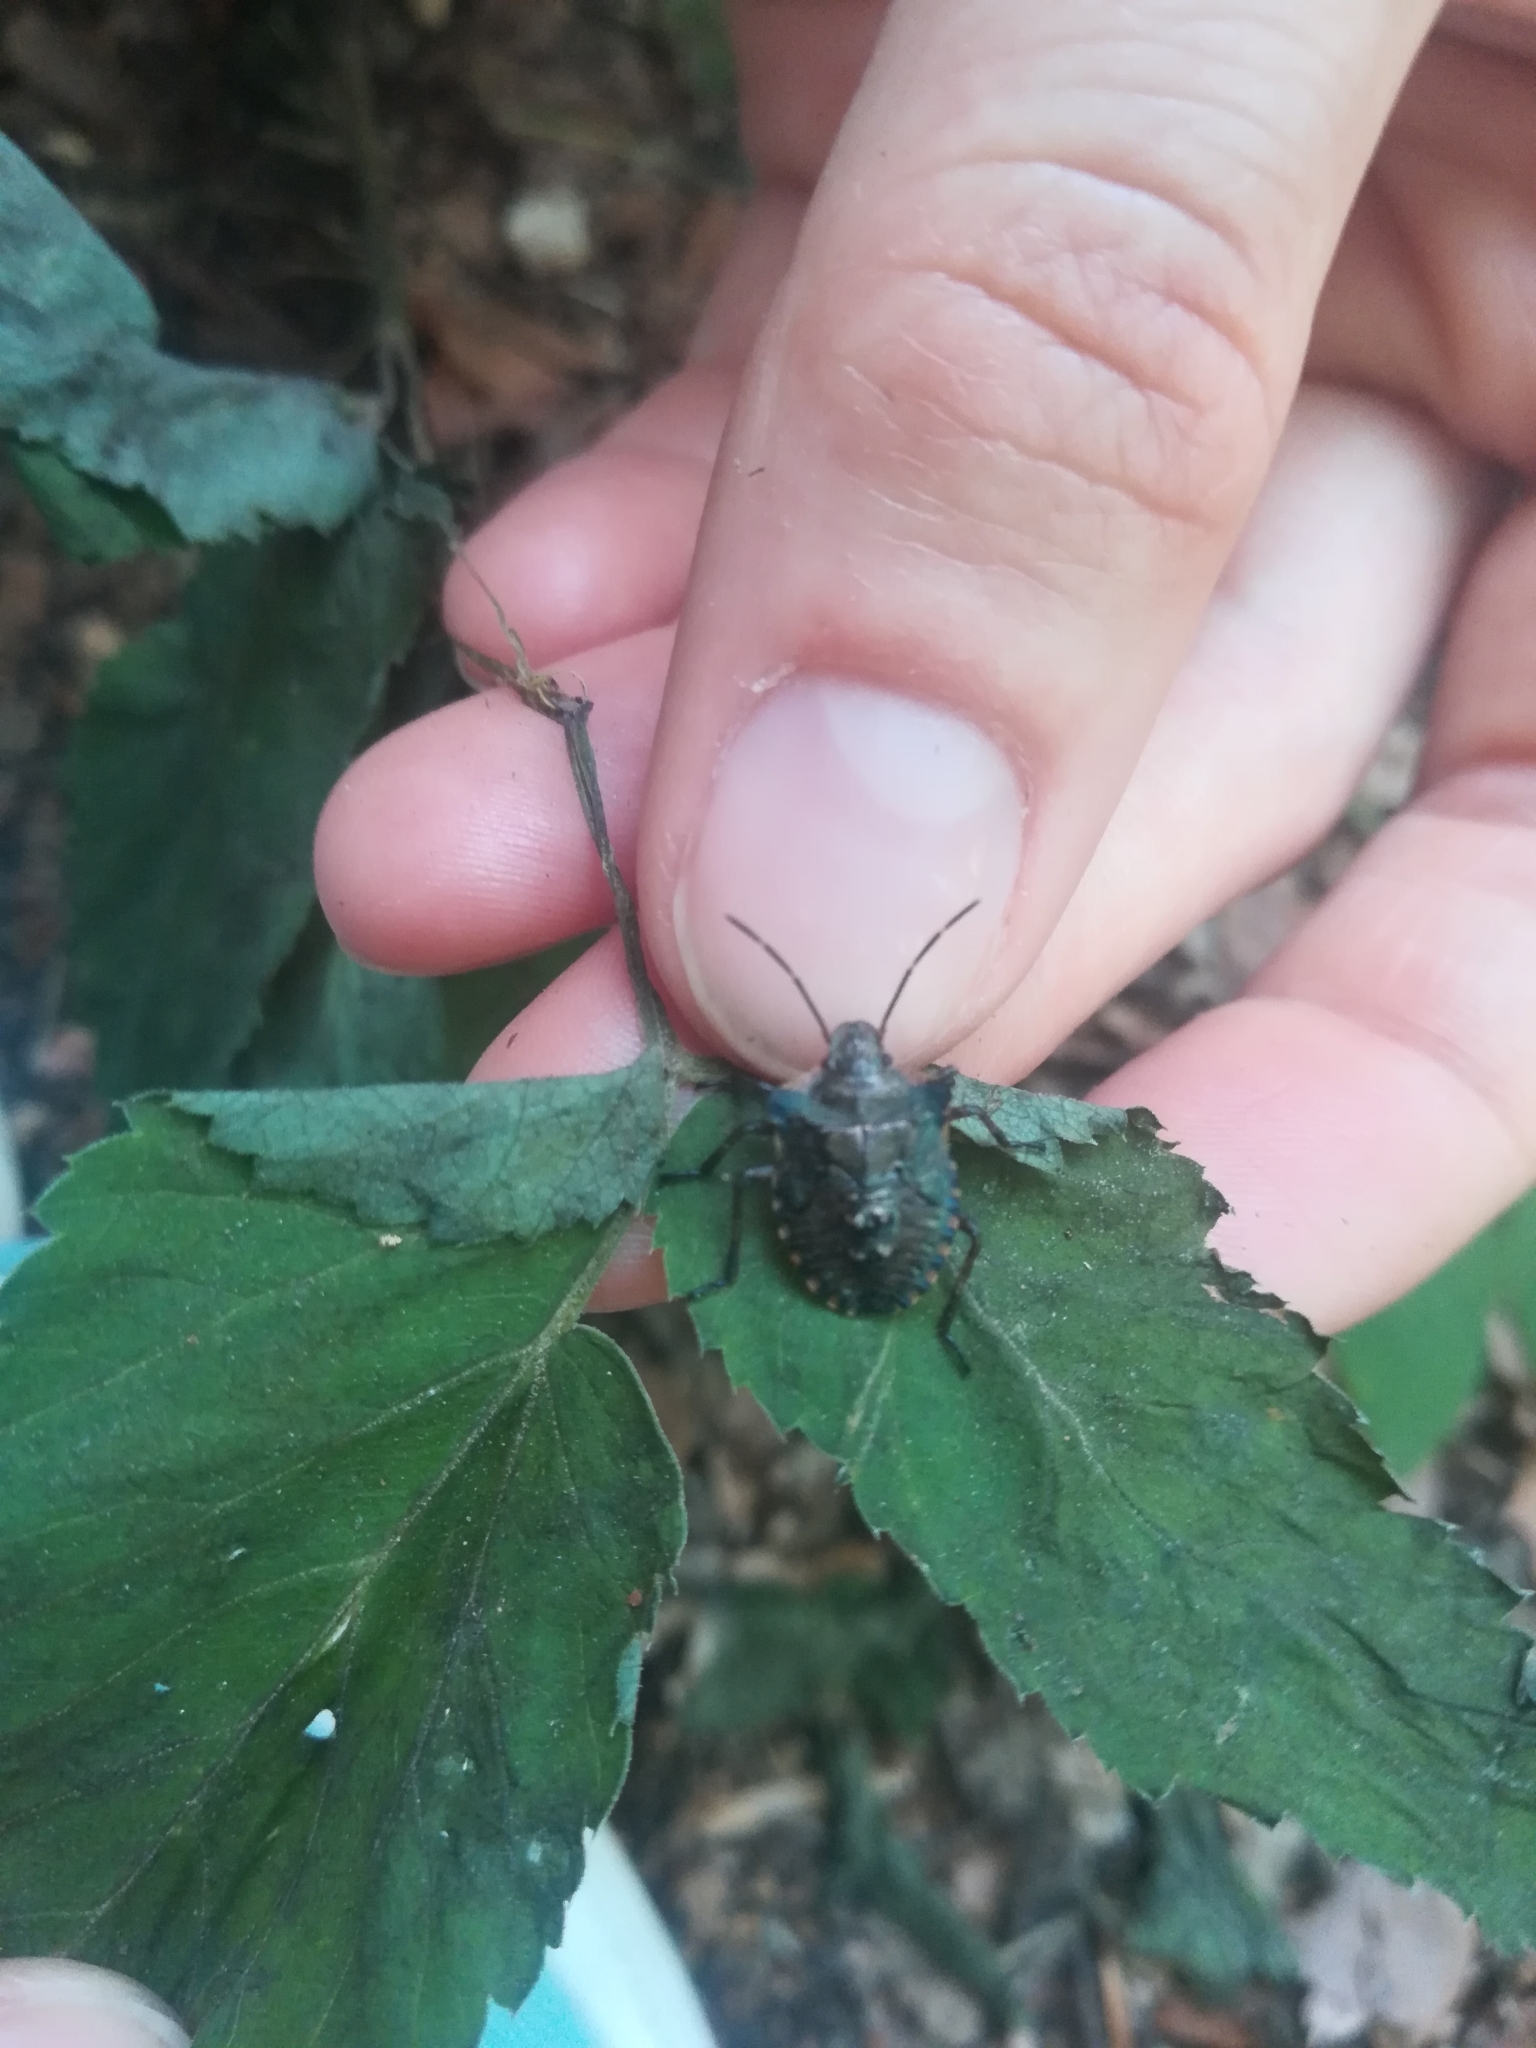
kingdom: Animalia
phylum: Arthropoda
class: Insecta
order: Hemiptera
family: Pentatomidae
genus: Pentatoma
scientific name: Pentatoma rufipes
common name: Forest bug
